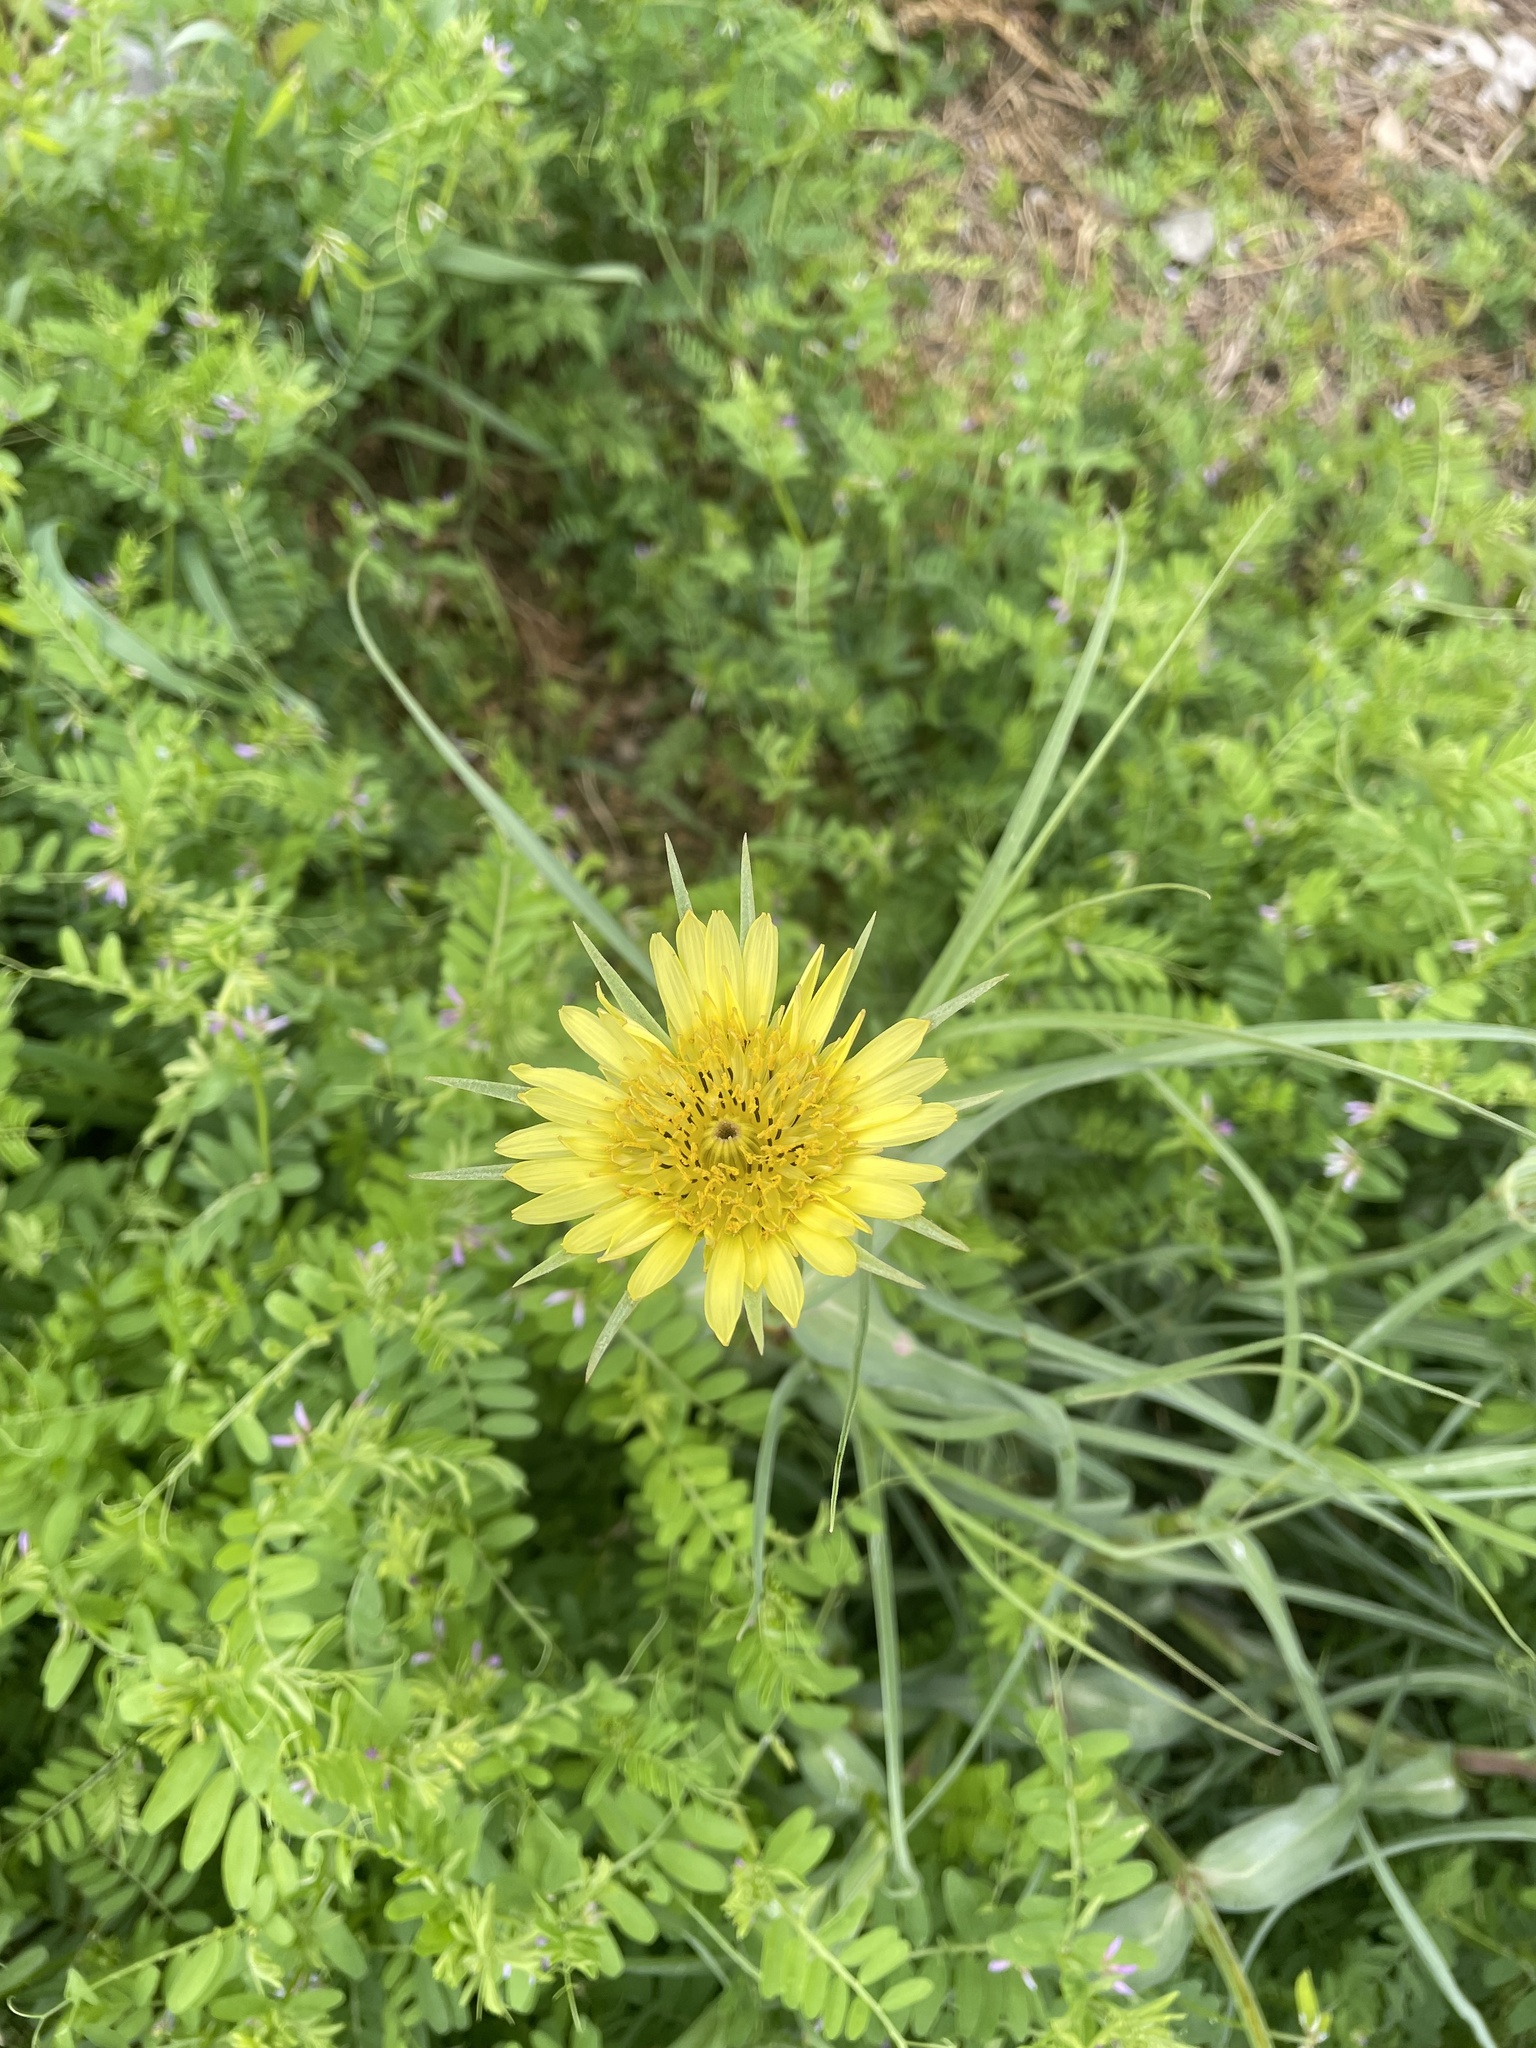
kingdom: Plantae
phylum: Tracheophyta
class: Magnoliopsida
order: Asterales
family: Asteraceae
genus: Tragopogon
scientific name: Tragopogon dubius
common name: Yellow salsify
